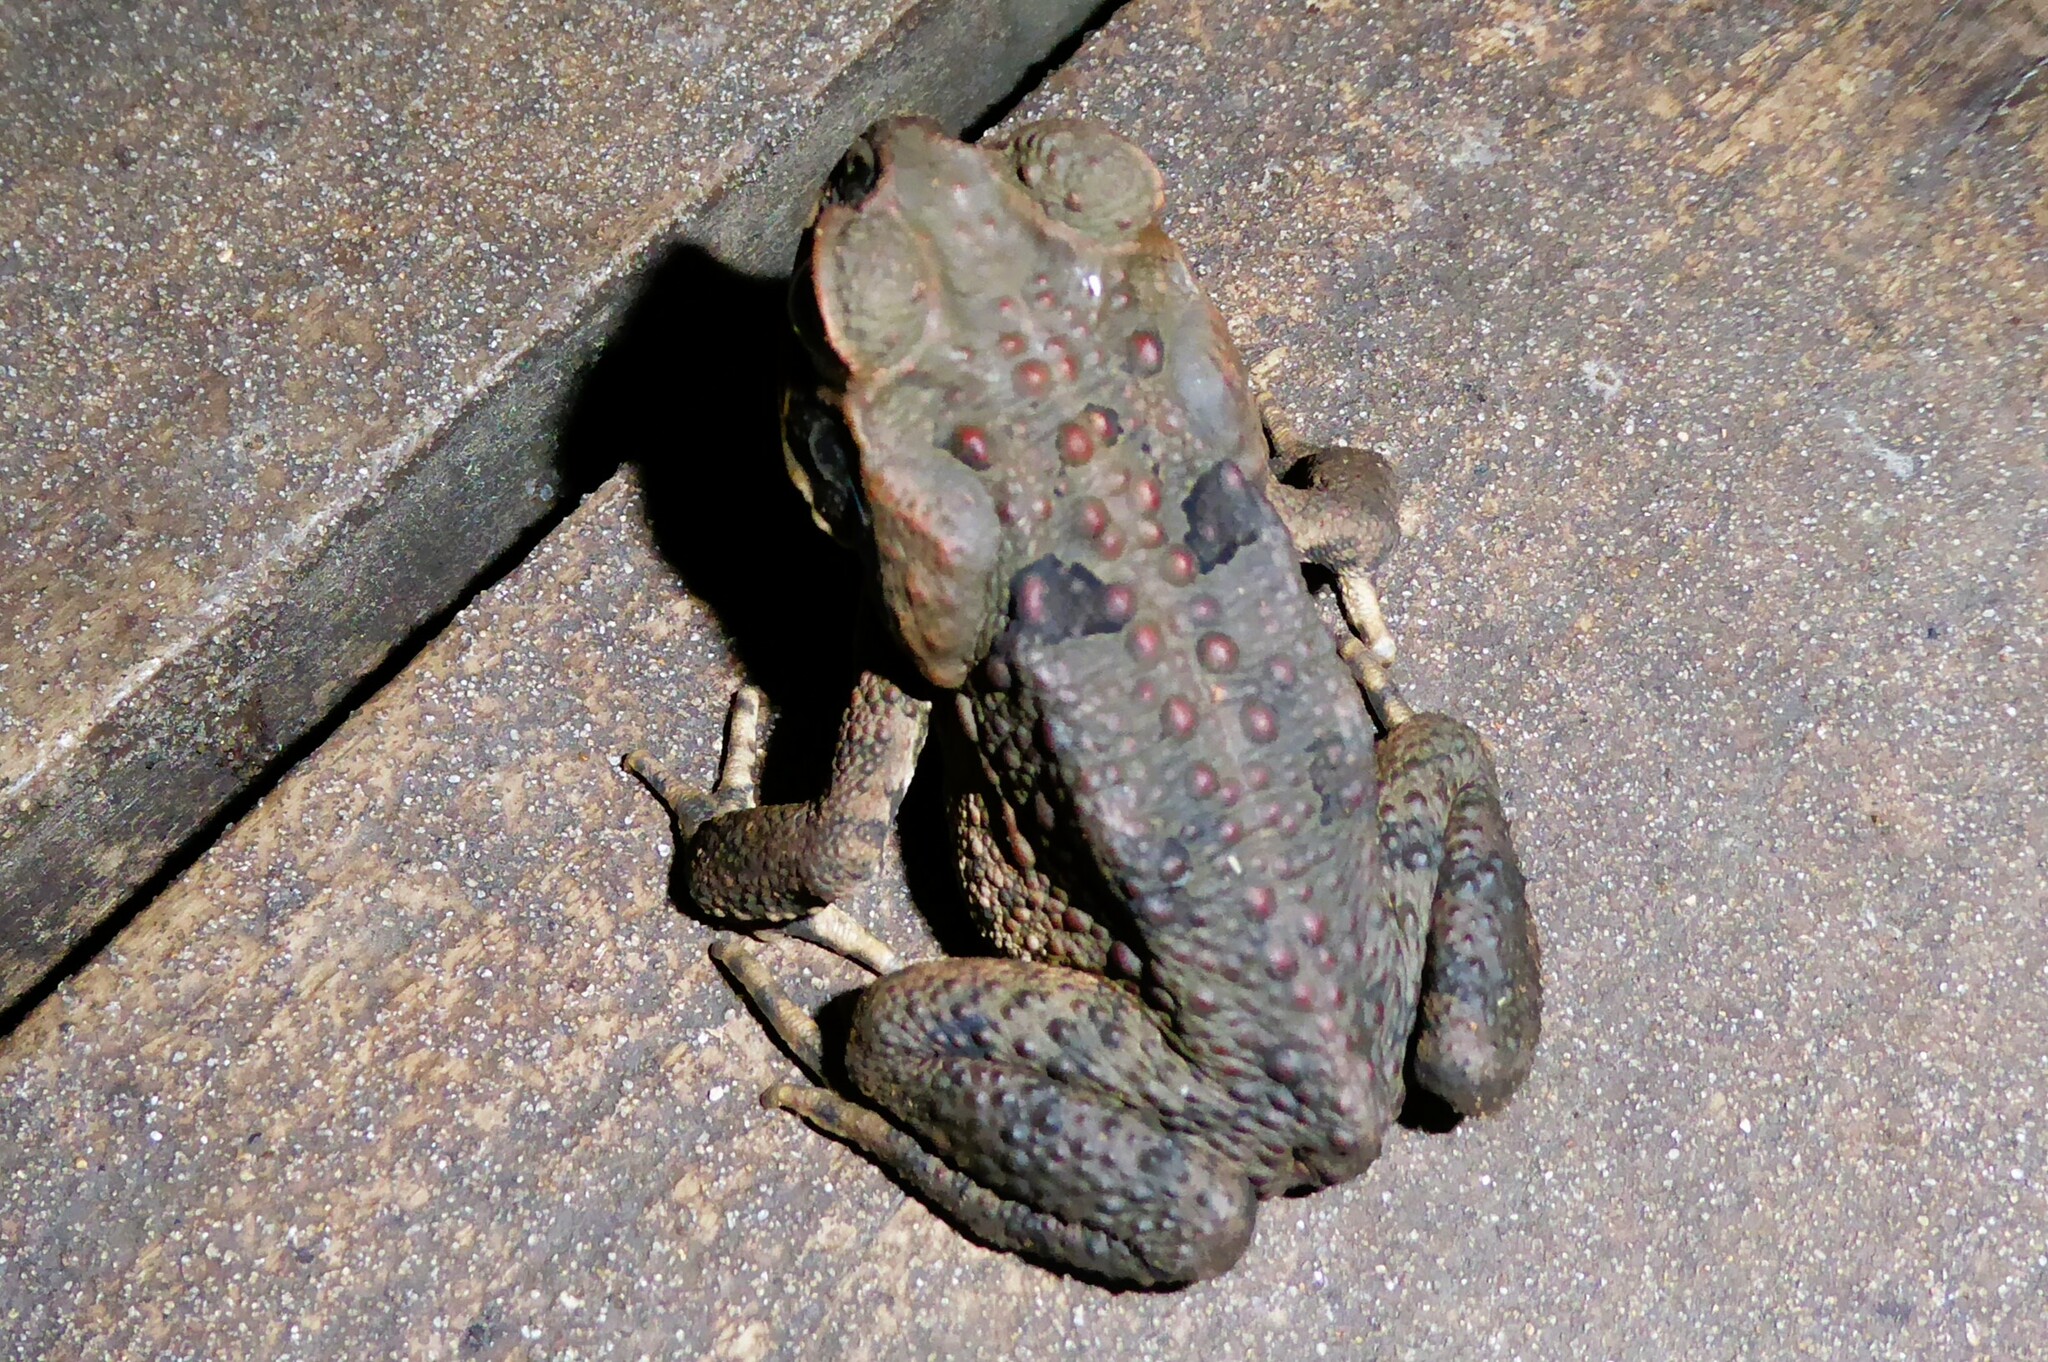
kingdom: Animalia
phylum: Chordata
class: Amphibia
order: Anura
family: Bufonidae
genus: Rhinella
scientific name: Rhinella marina
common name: Cane toad
